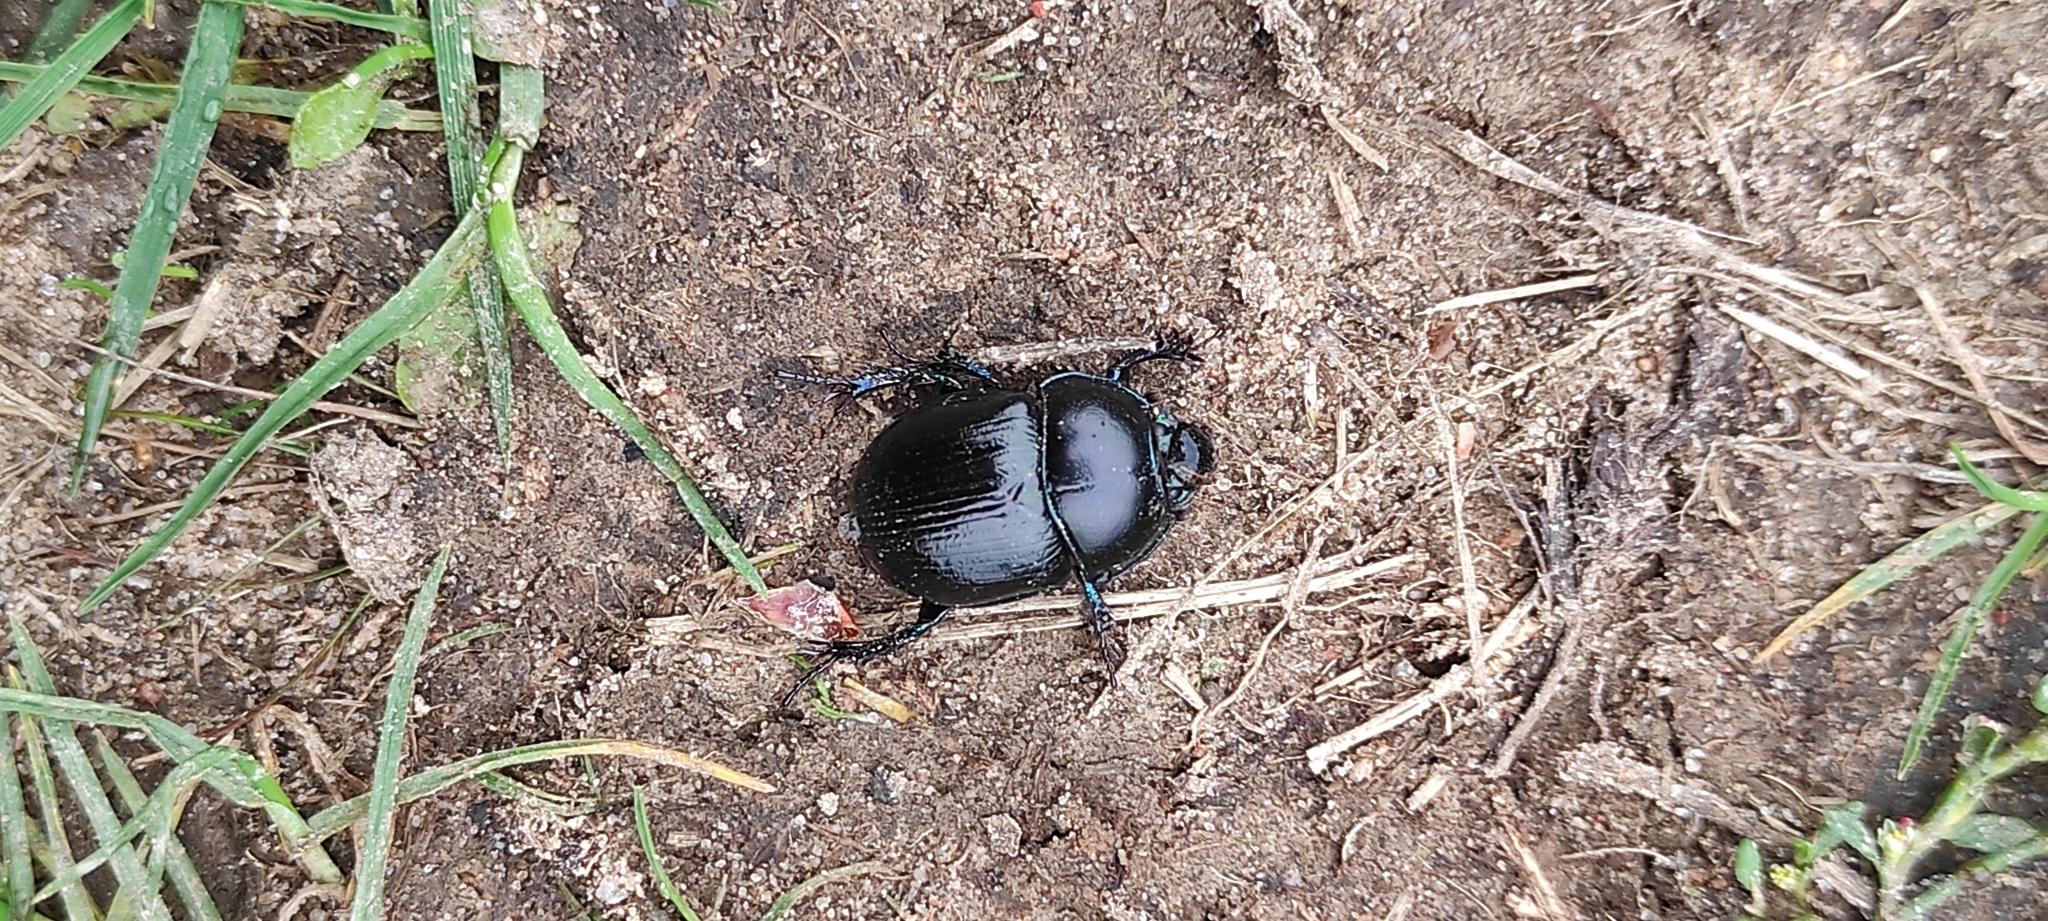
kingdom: Animalia
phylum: Arthropoda
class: Insecta
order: Coleoptera
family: Geotrupidae
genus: Anoplotrupes
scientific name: Anoplotrupes stercorosus
